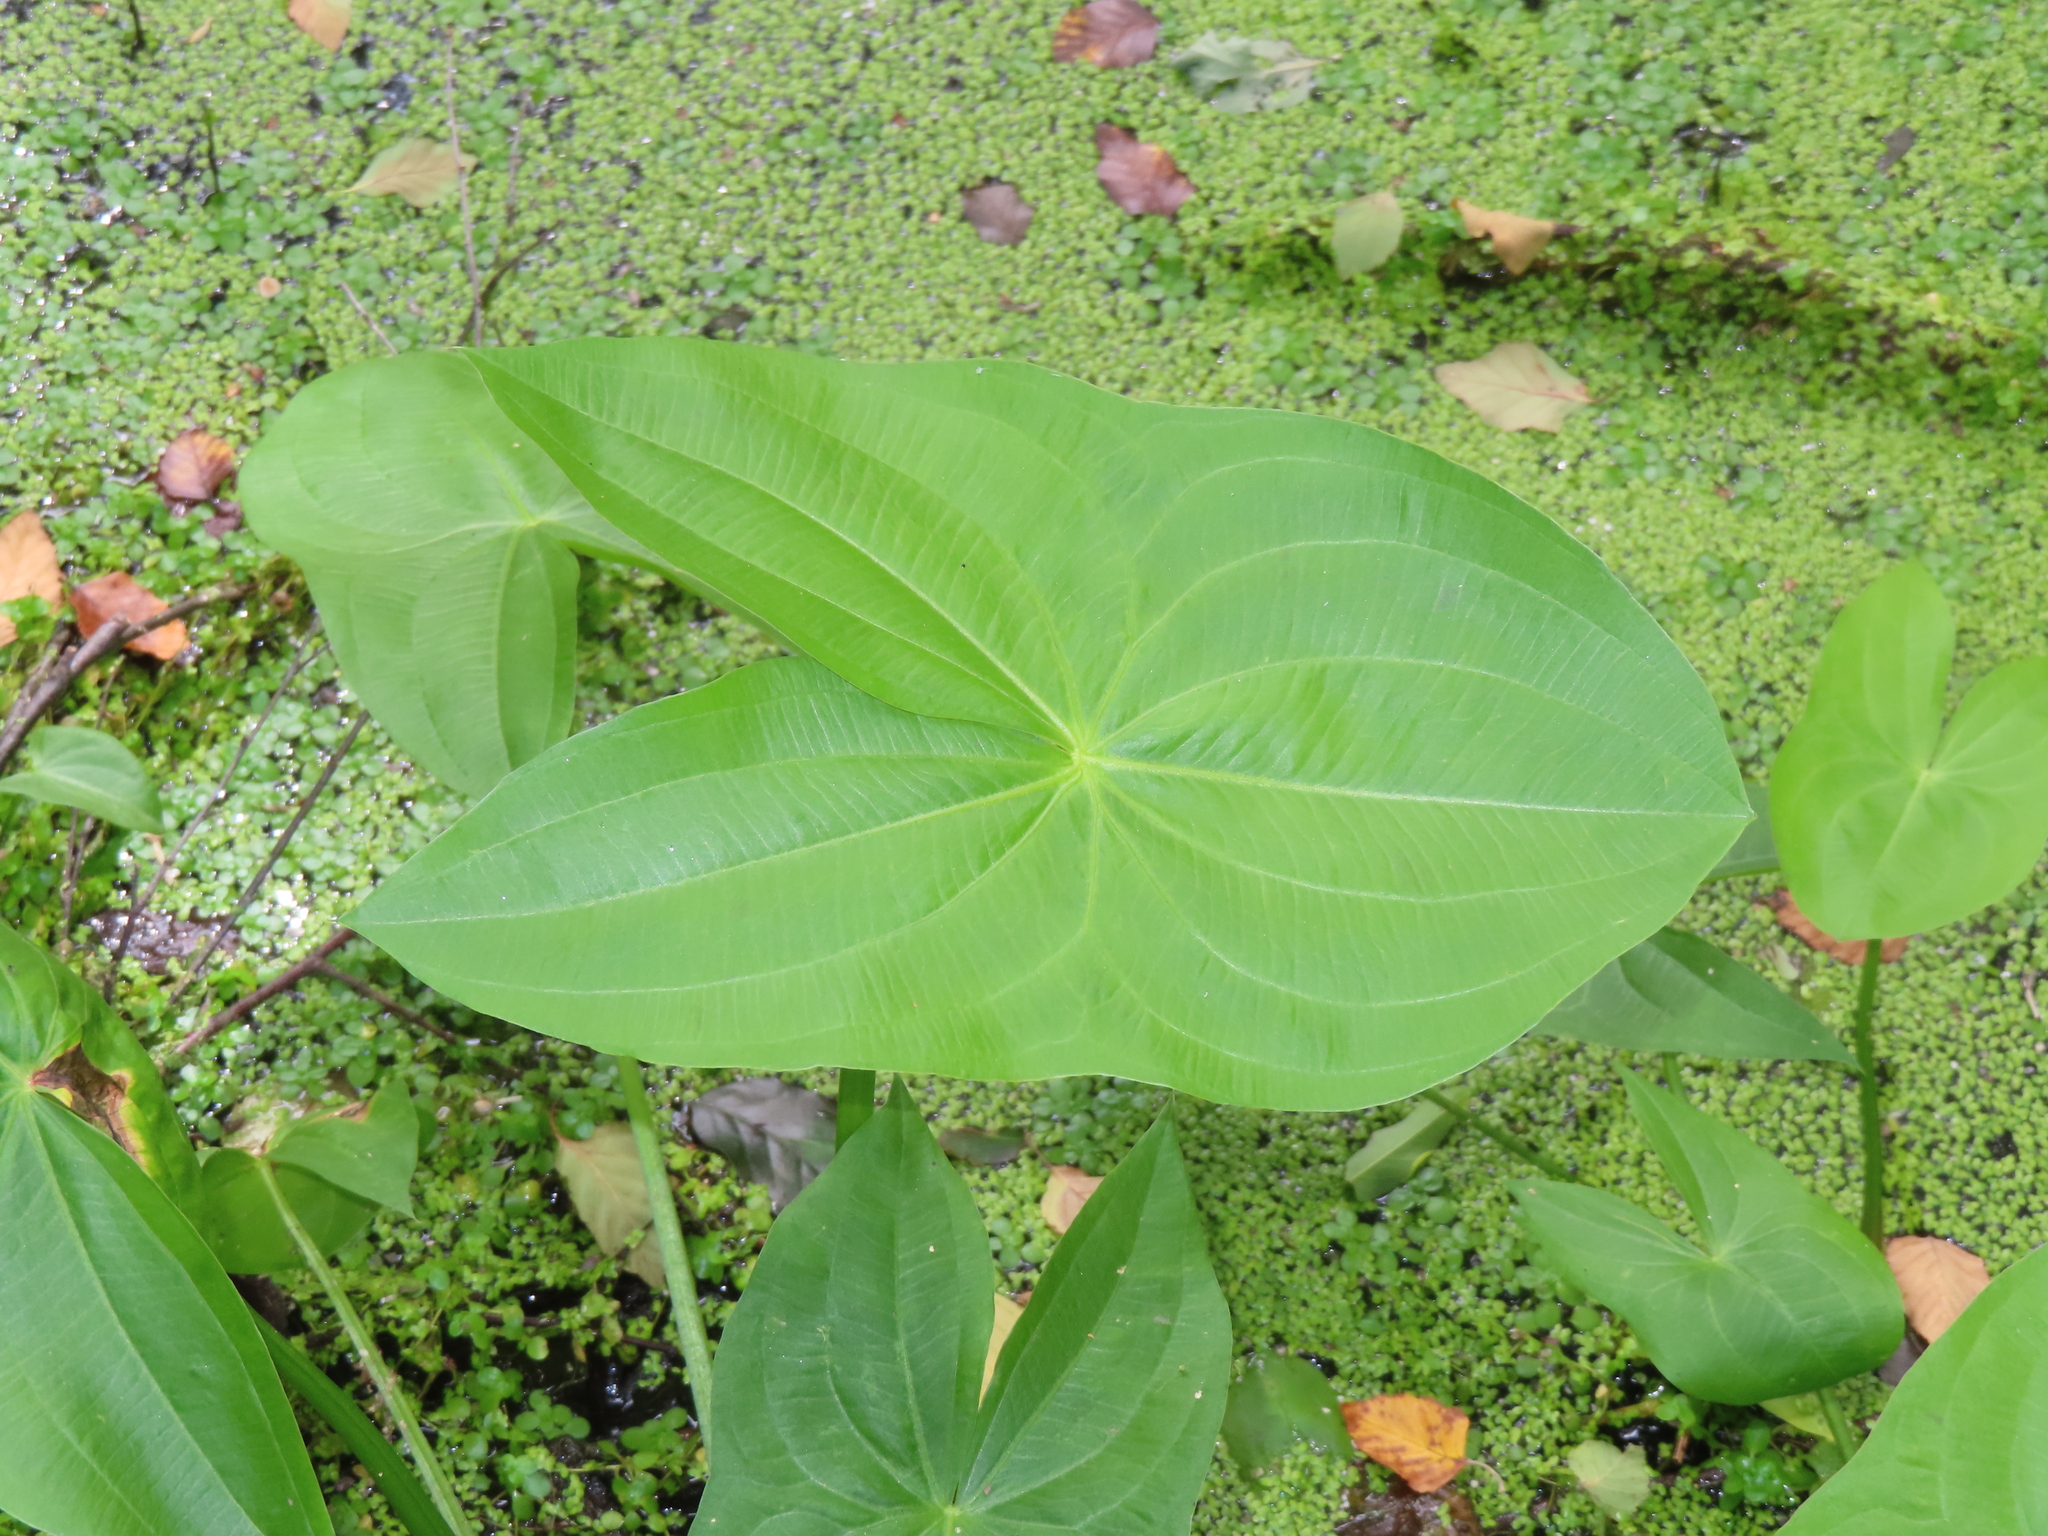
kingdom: Plantae
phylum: Tracheophyta
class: Liliopsida
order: Alismatales
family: Alismataceae
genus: Sagittaria
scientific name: Sagittaria latifolia
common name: Duck-potato
